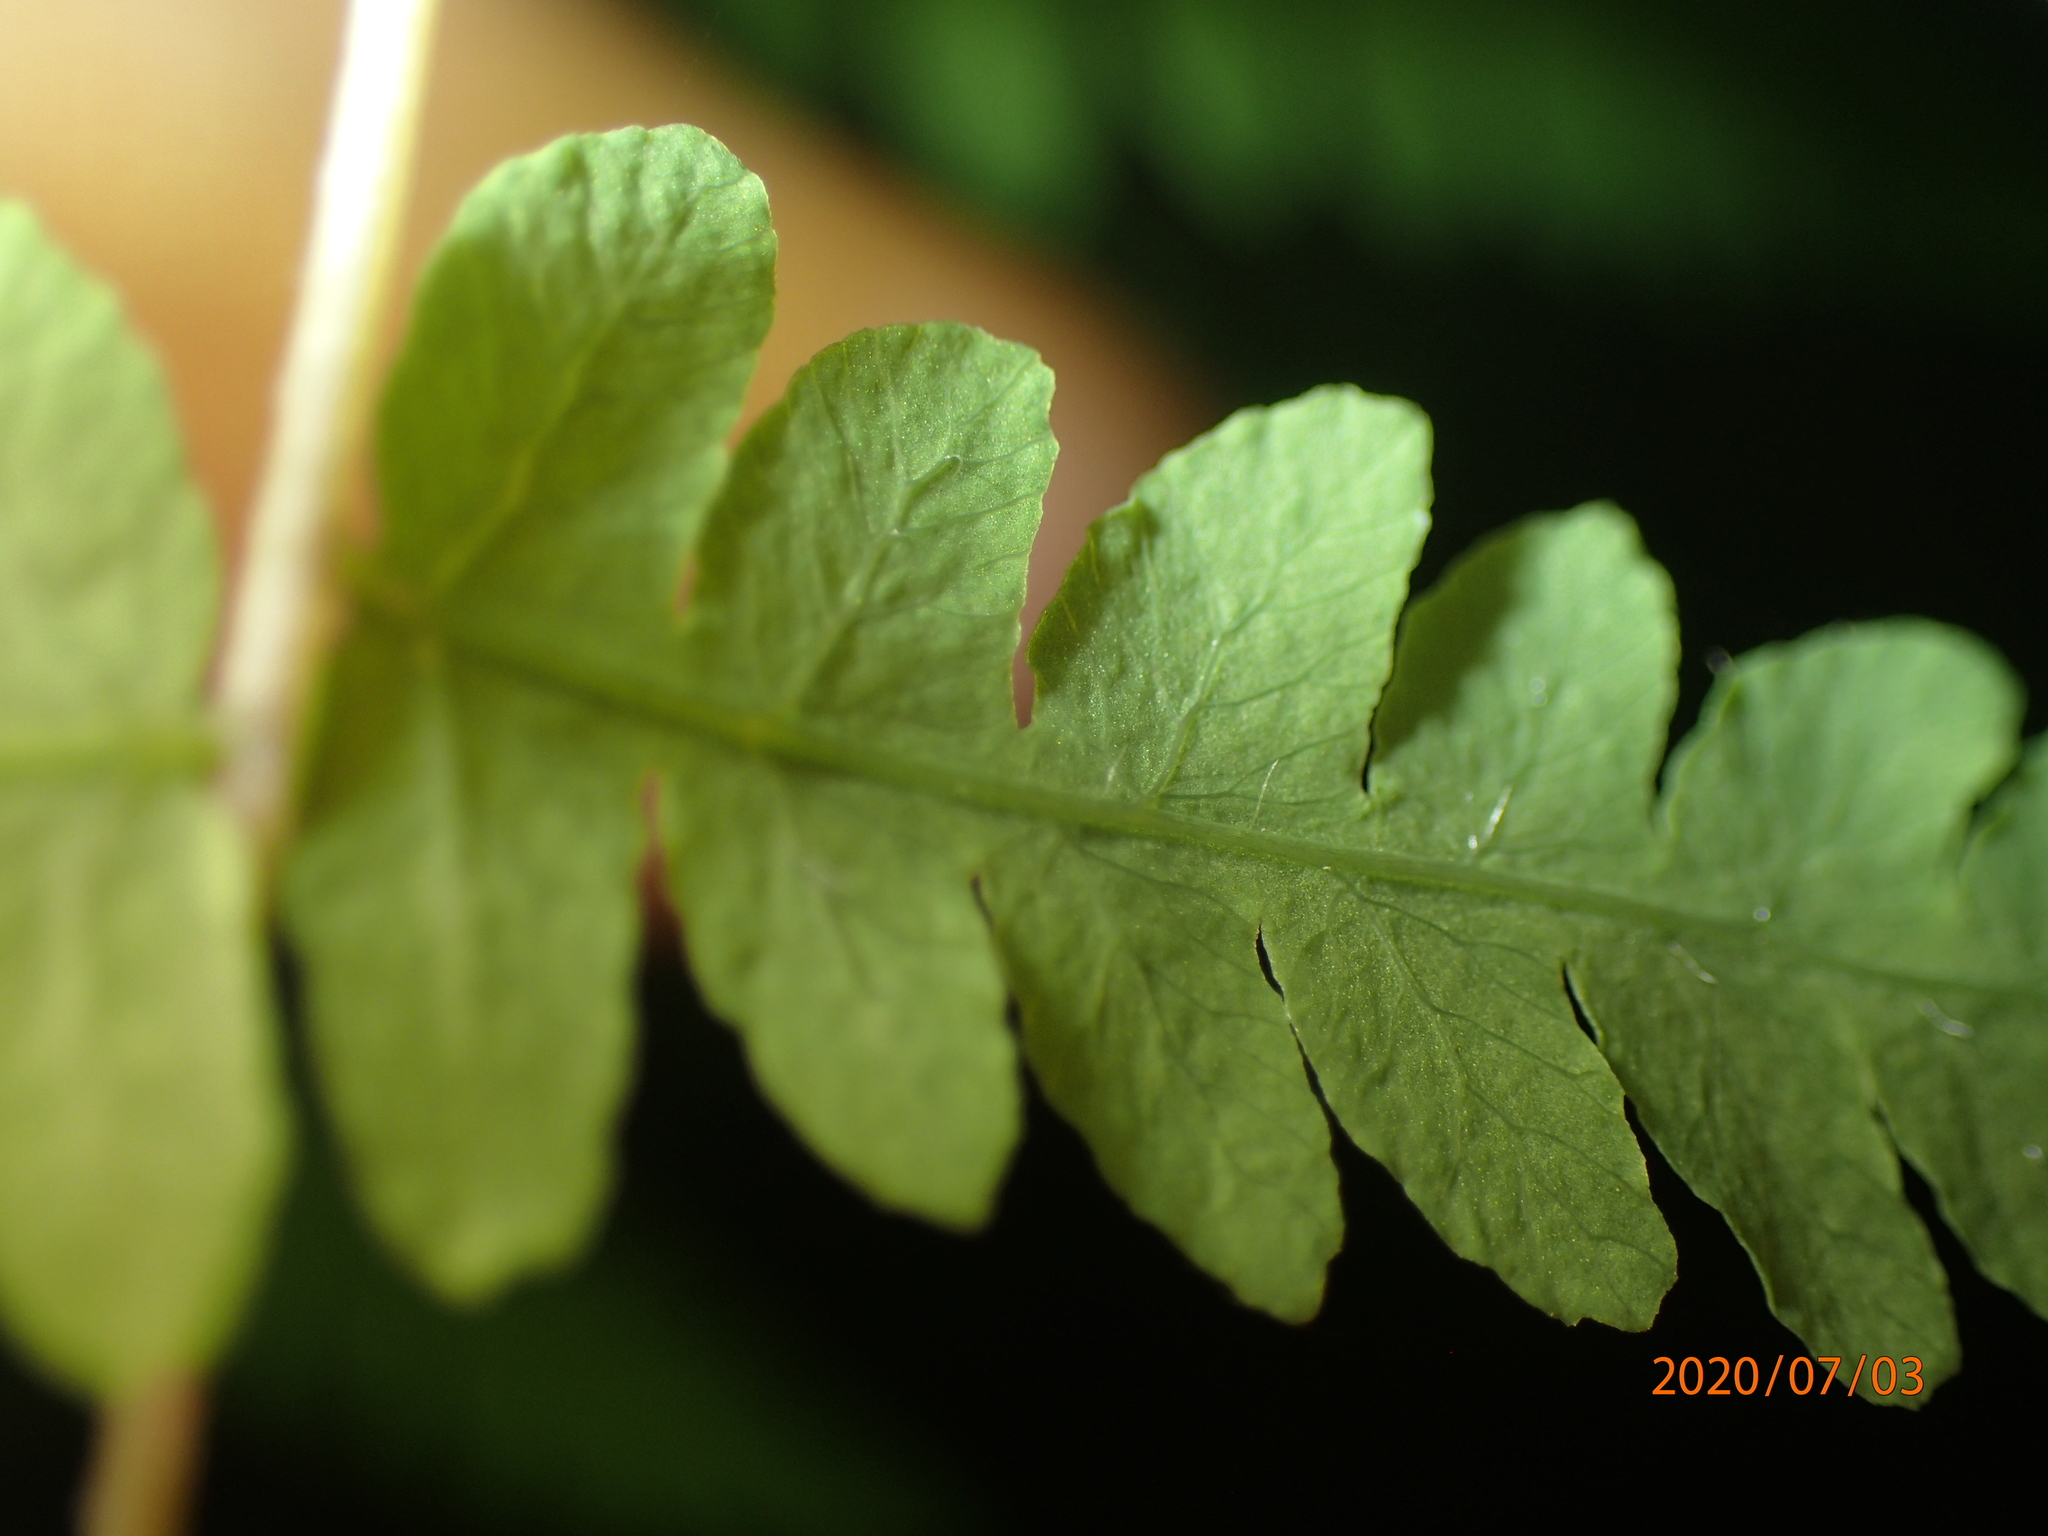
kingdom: Plantae
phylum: Tracheophyta
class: Polypodiopsida
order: Polypodiales
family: Thelypteridaceae
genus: Thelypteris
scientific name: Thelypteris palustris
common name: Marsh fern
